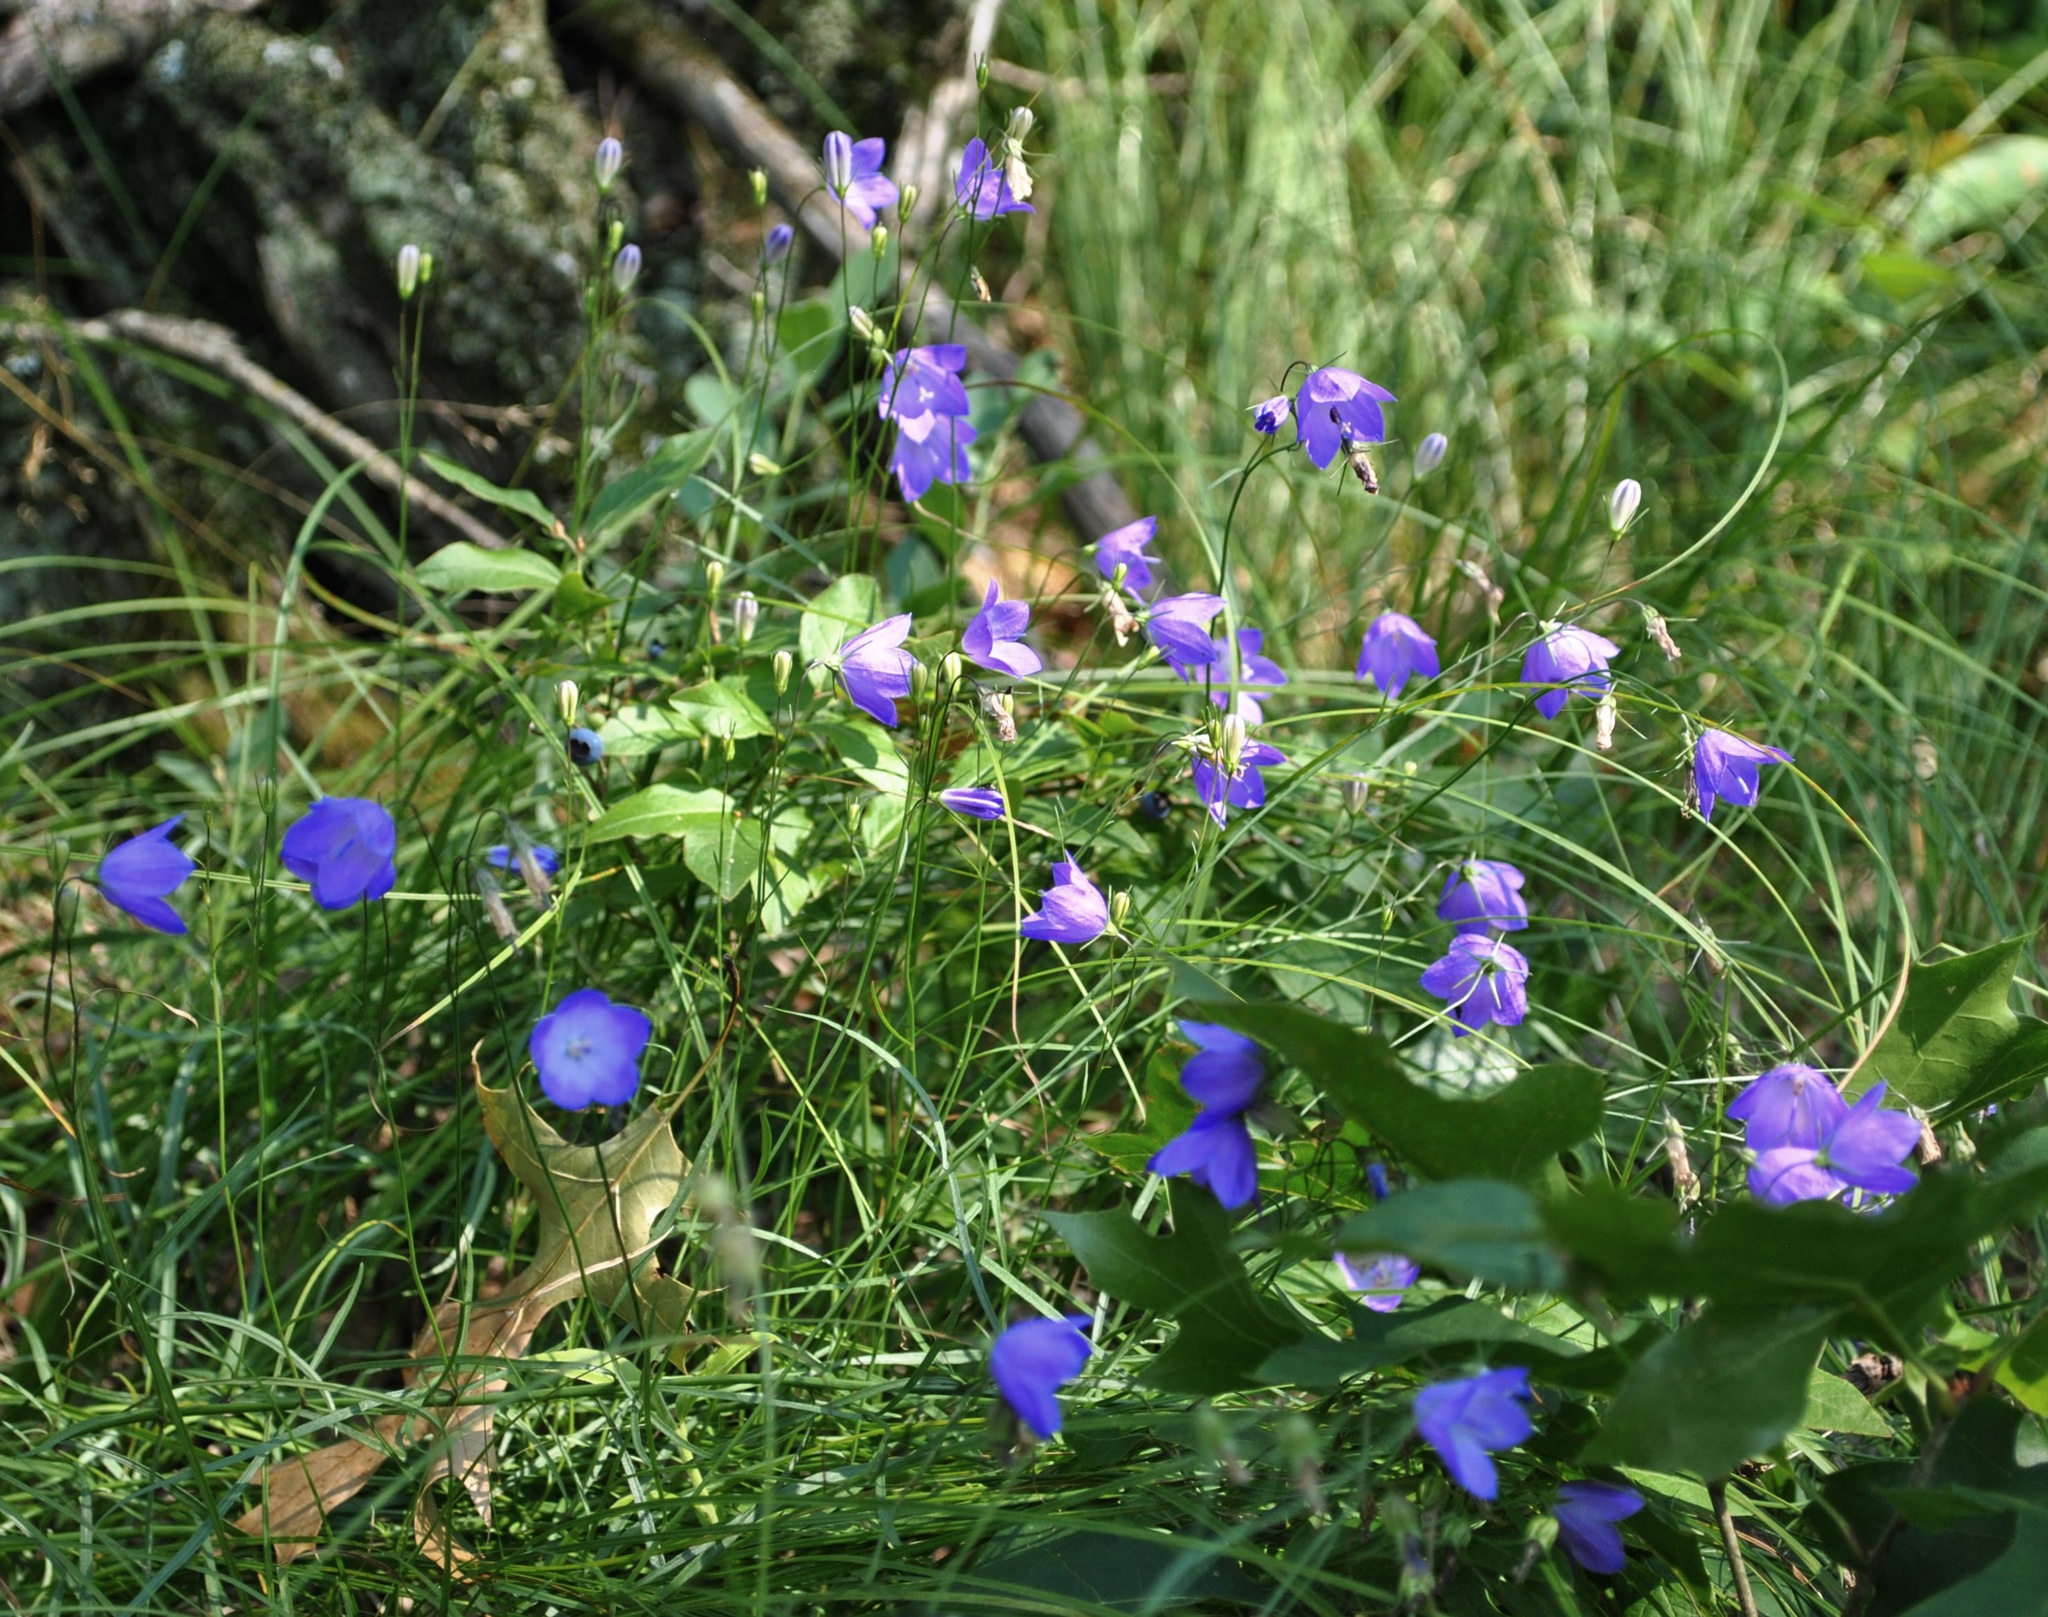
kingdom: Plantae
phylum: Tracheophyta
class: Magnoliopsida
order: Asterales
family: Campanulaceae
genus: Campanula
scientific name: Campanula intercedens
